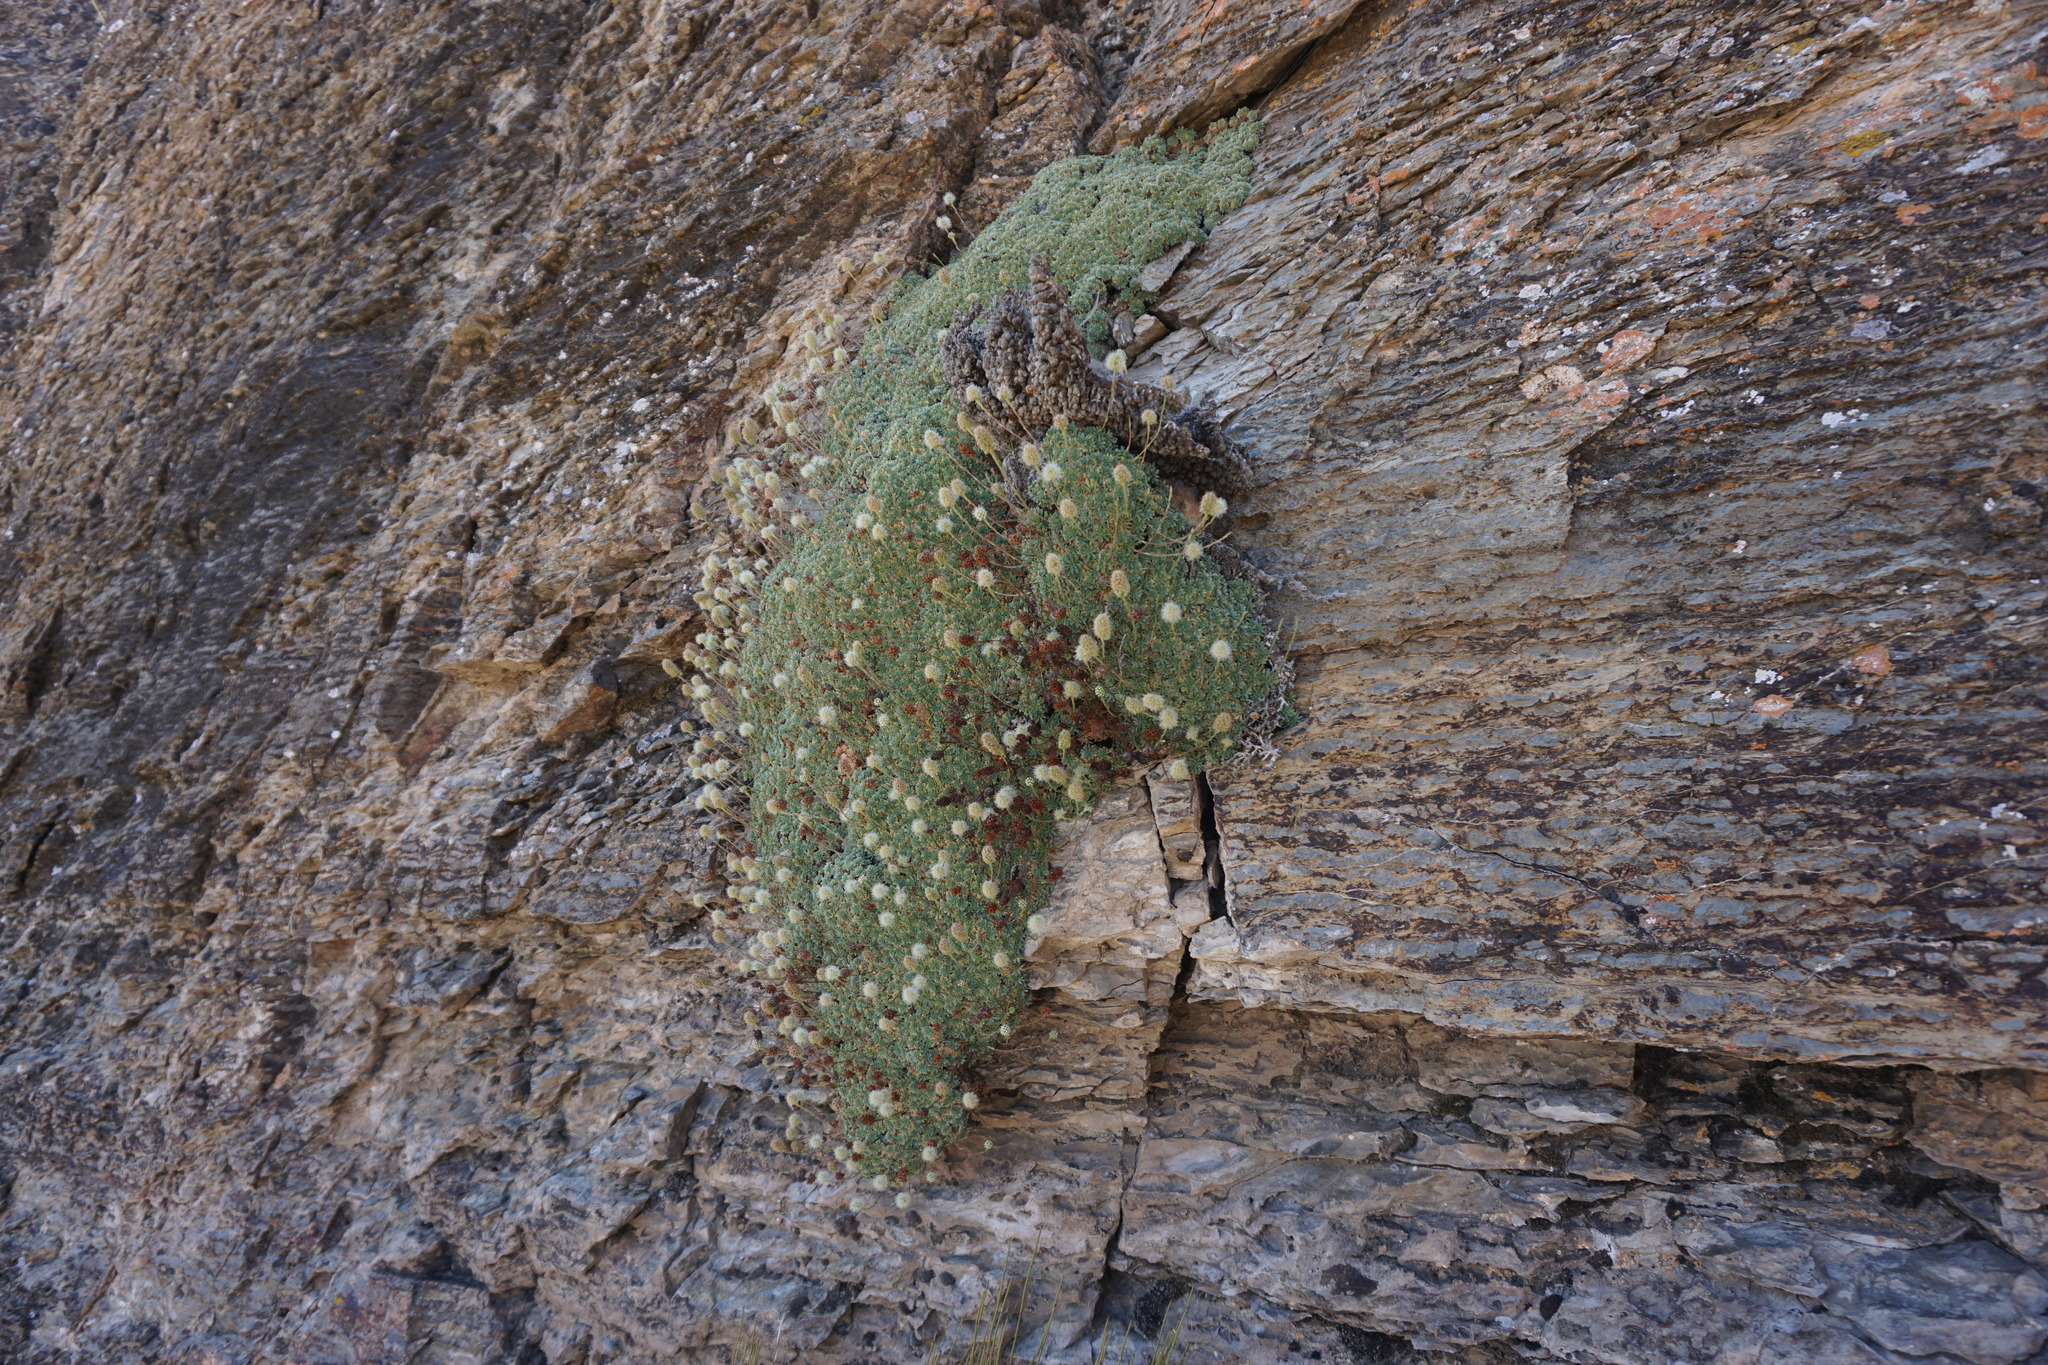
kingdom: Plantae
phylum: Tracheophyta
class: Magnoliopsida
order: Rosales
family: Rosaceae
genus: Petrophytum
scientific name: Petrophytum caespitosum
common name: Mat rockspirea
